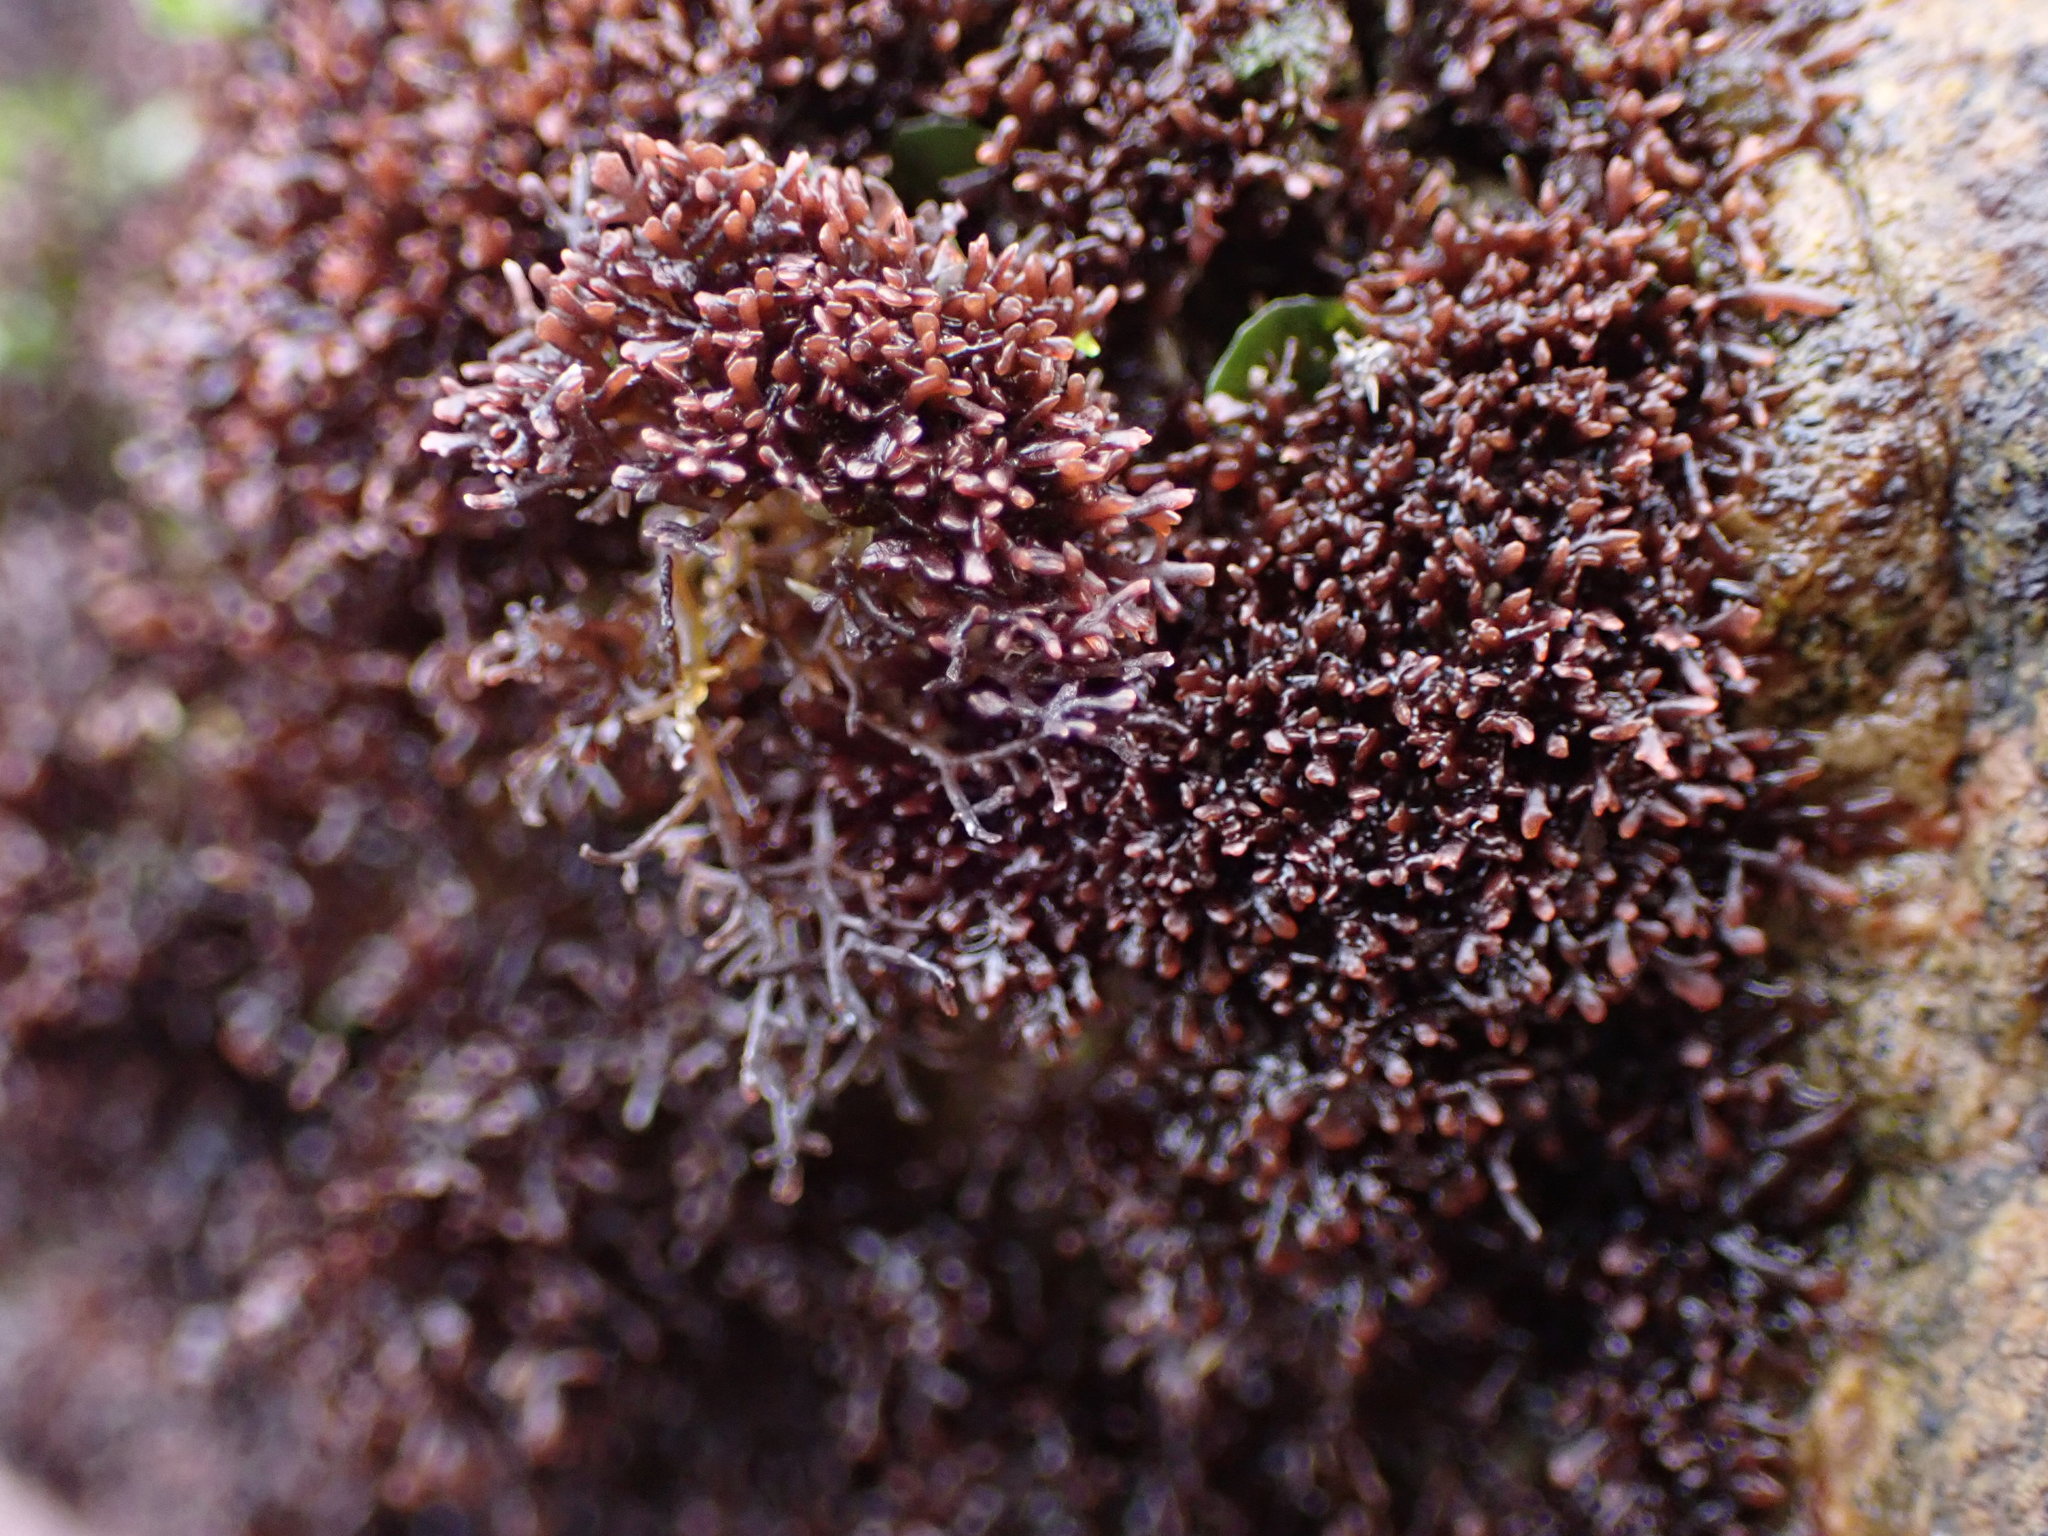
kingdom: Plantae
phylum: Rhodophyta
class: Florideophyceae
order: Gelidiales
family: Gelidiaceae
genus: Capreolia
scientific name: Capreolia implexa
